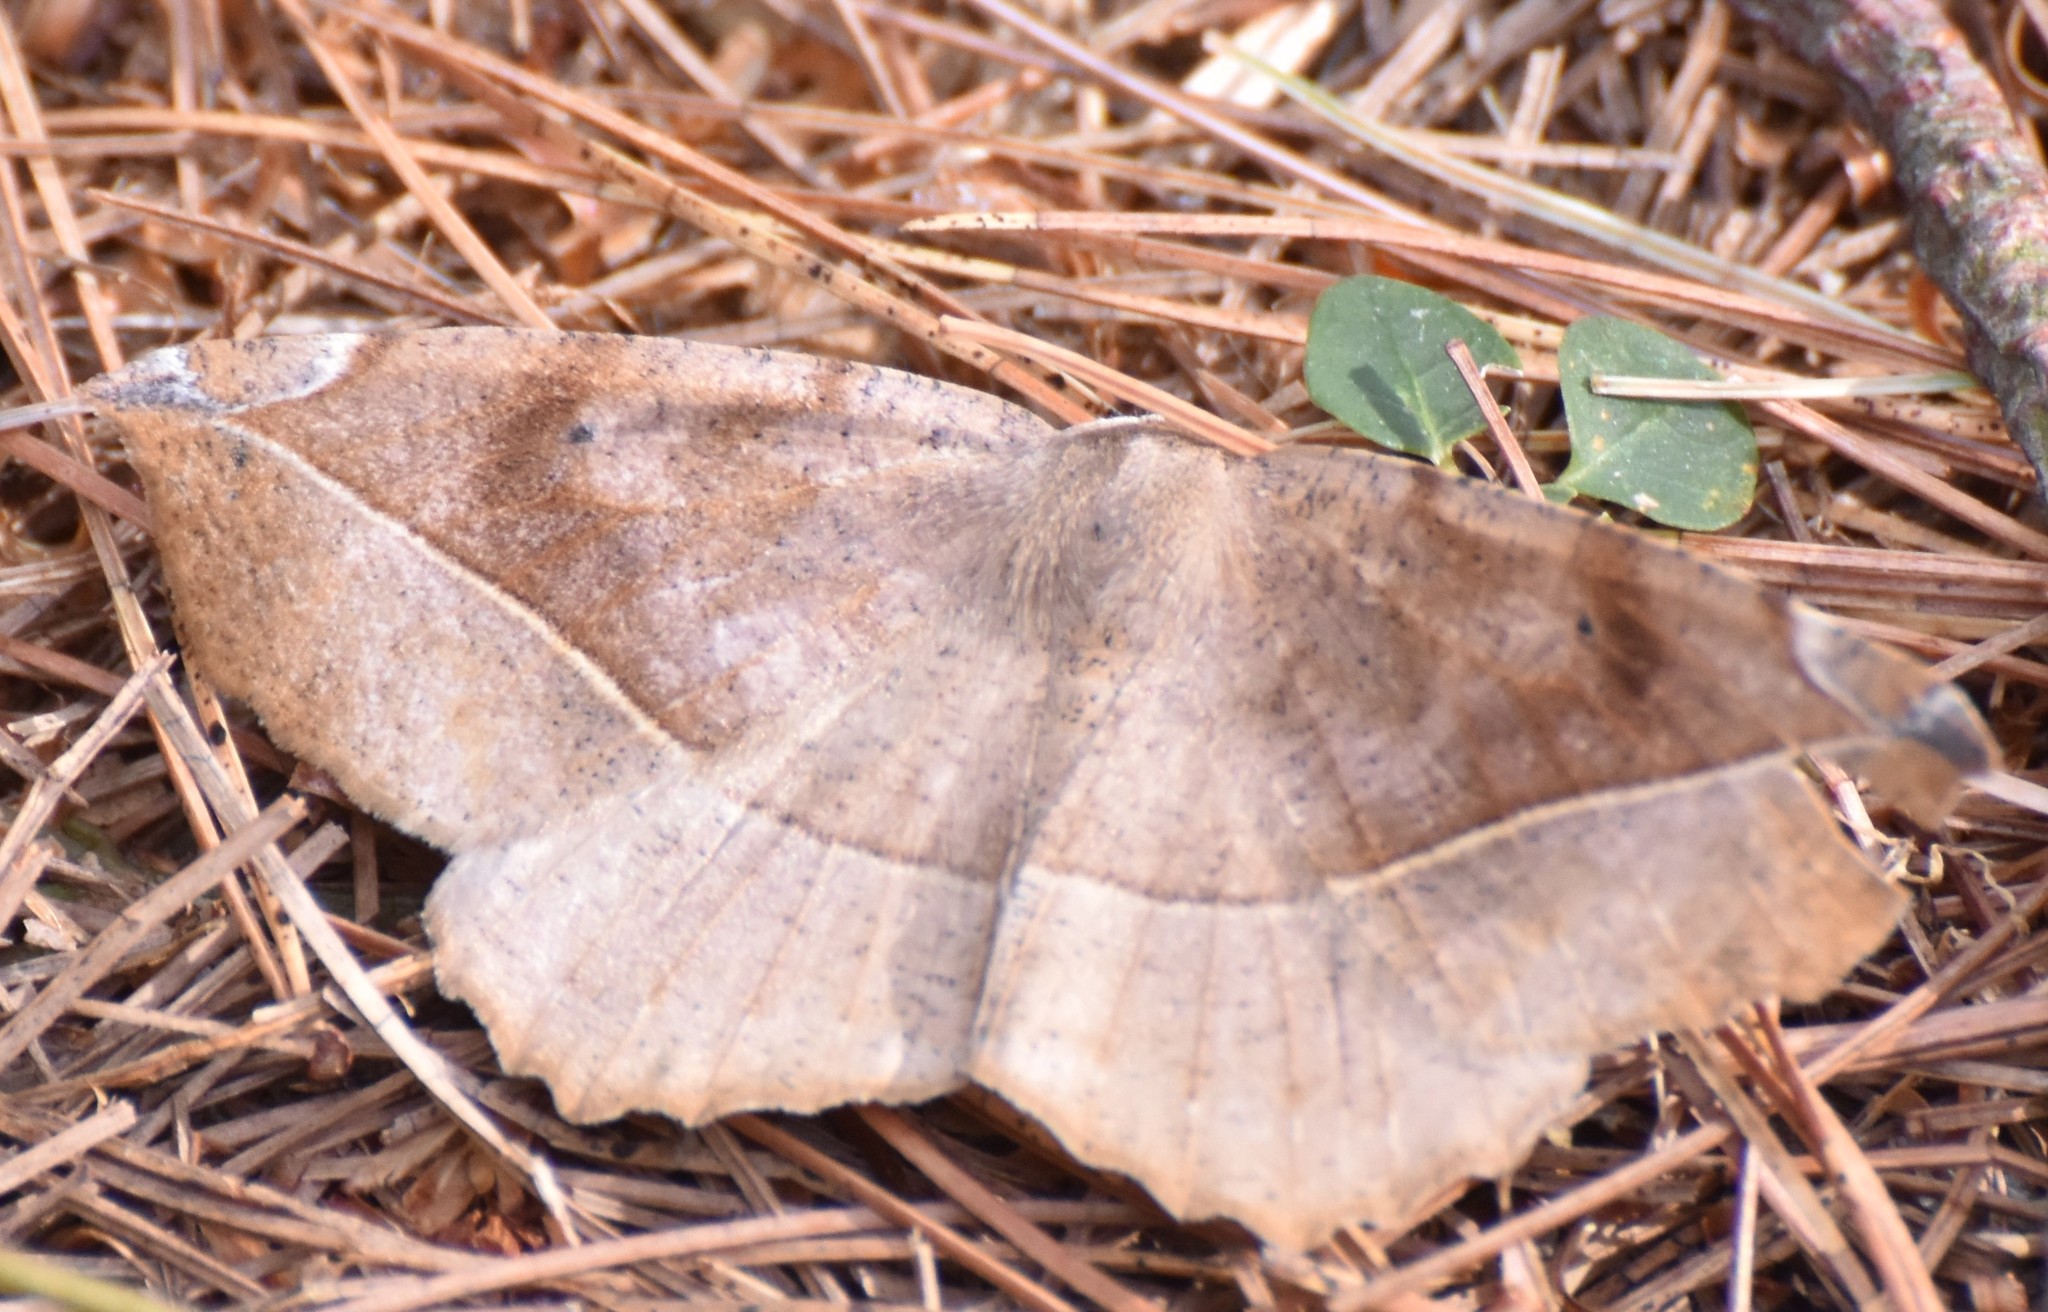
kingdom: Animalia
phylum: Arthropoda
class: Insecta
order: Lepidoptera
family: Geometridae
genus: Eutrapela
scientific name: Eutrapela clemataria
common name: Curved-toothed geometer
